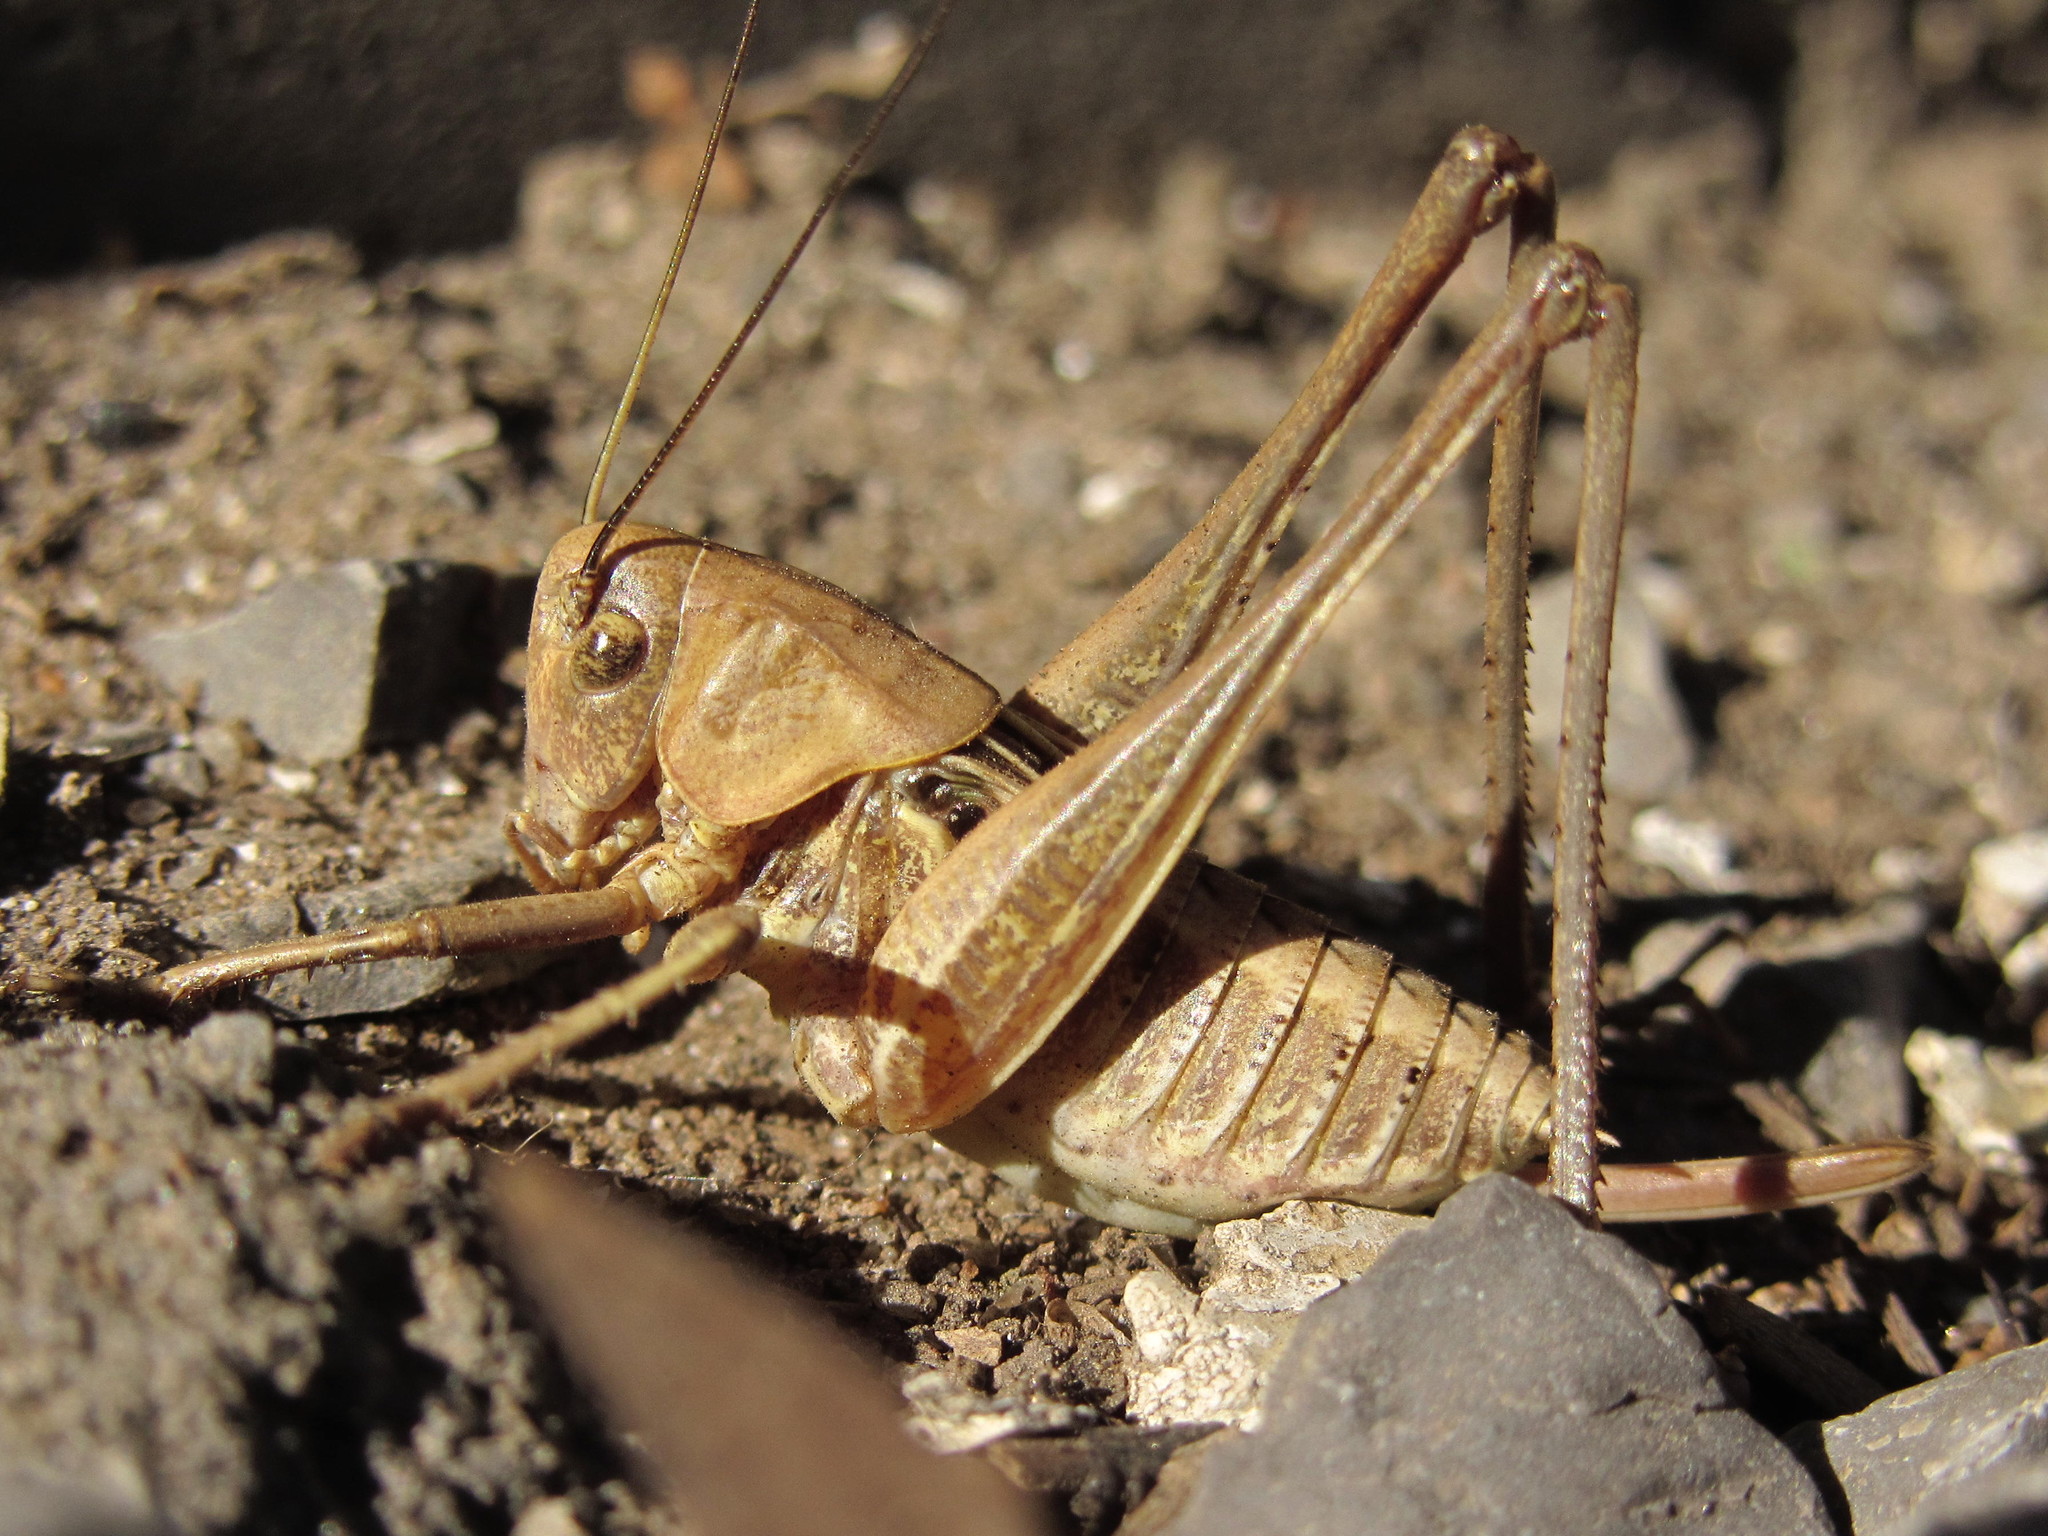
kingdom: Animalia
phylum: Arthropoda
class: Insecta
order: Orthoptera
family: Tettigoniidae
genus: Decticus
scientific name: Decticus verrucivorus
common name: Wart-biter
